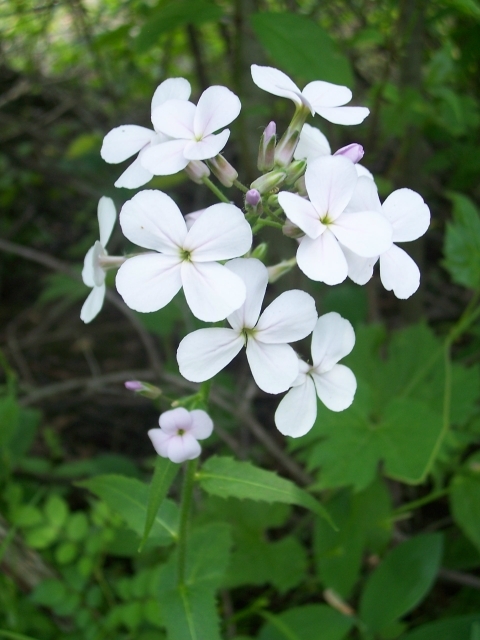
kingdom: Plantae
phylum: Tracheophyta
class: Magnoliopsida
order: Brassicales
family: Brassicaceae
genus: Hesperis
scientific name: Hesperis matronalis
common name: Dame's-violet
